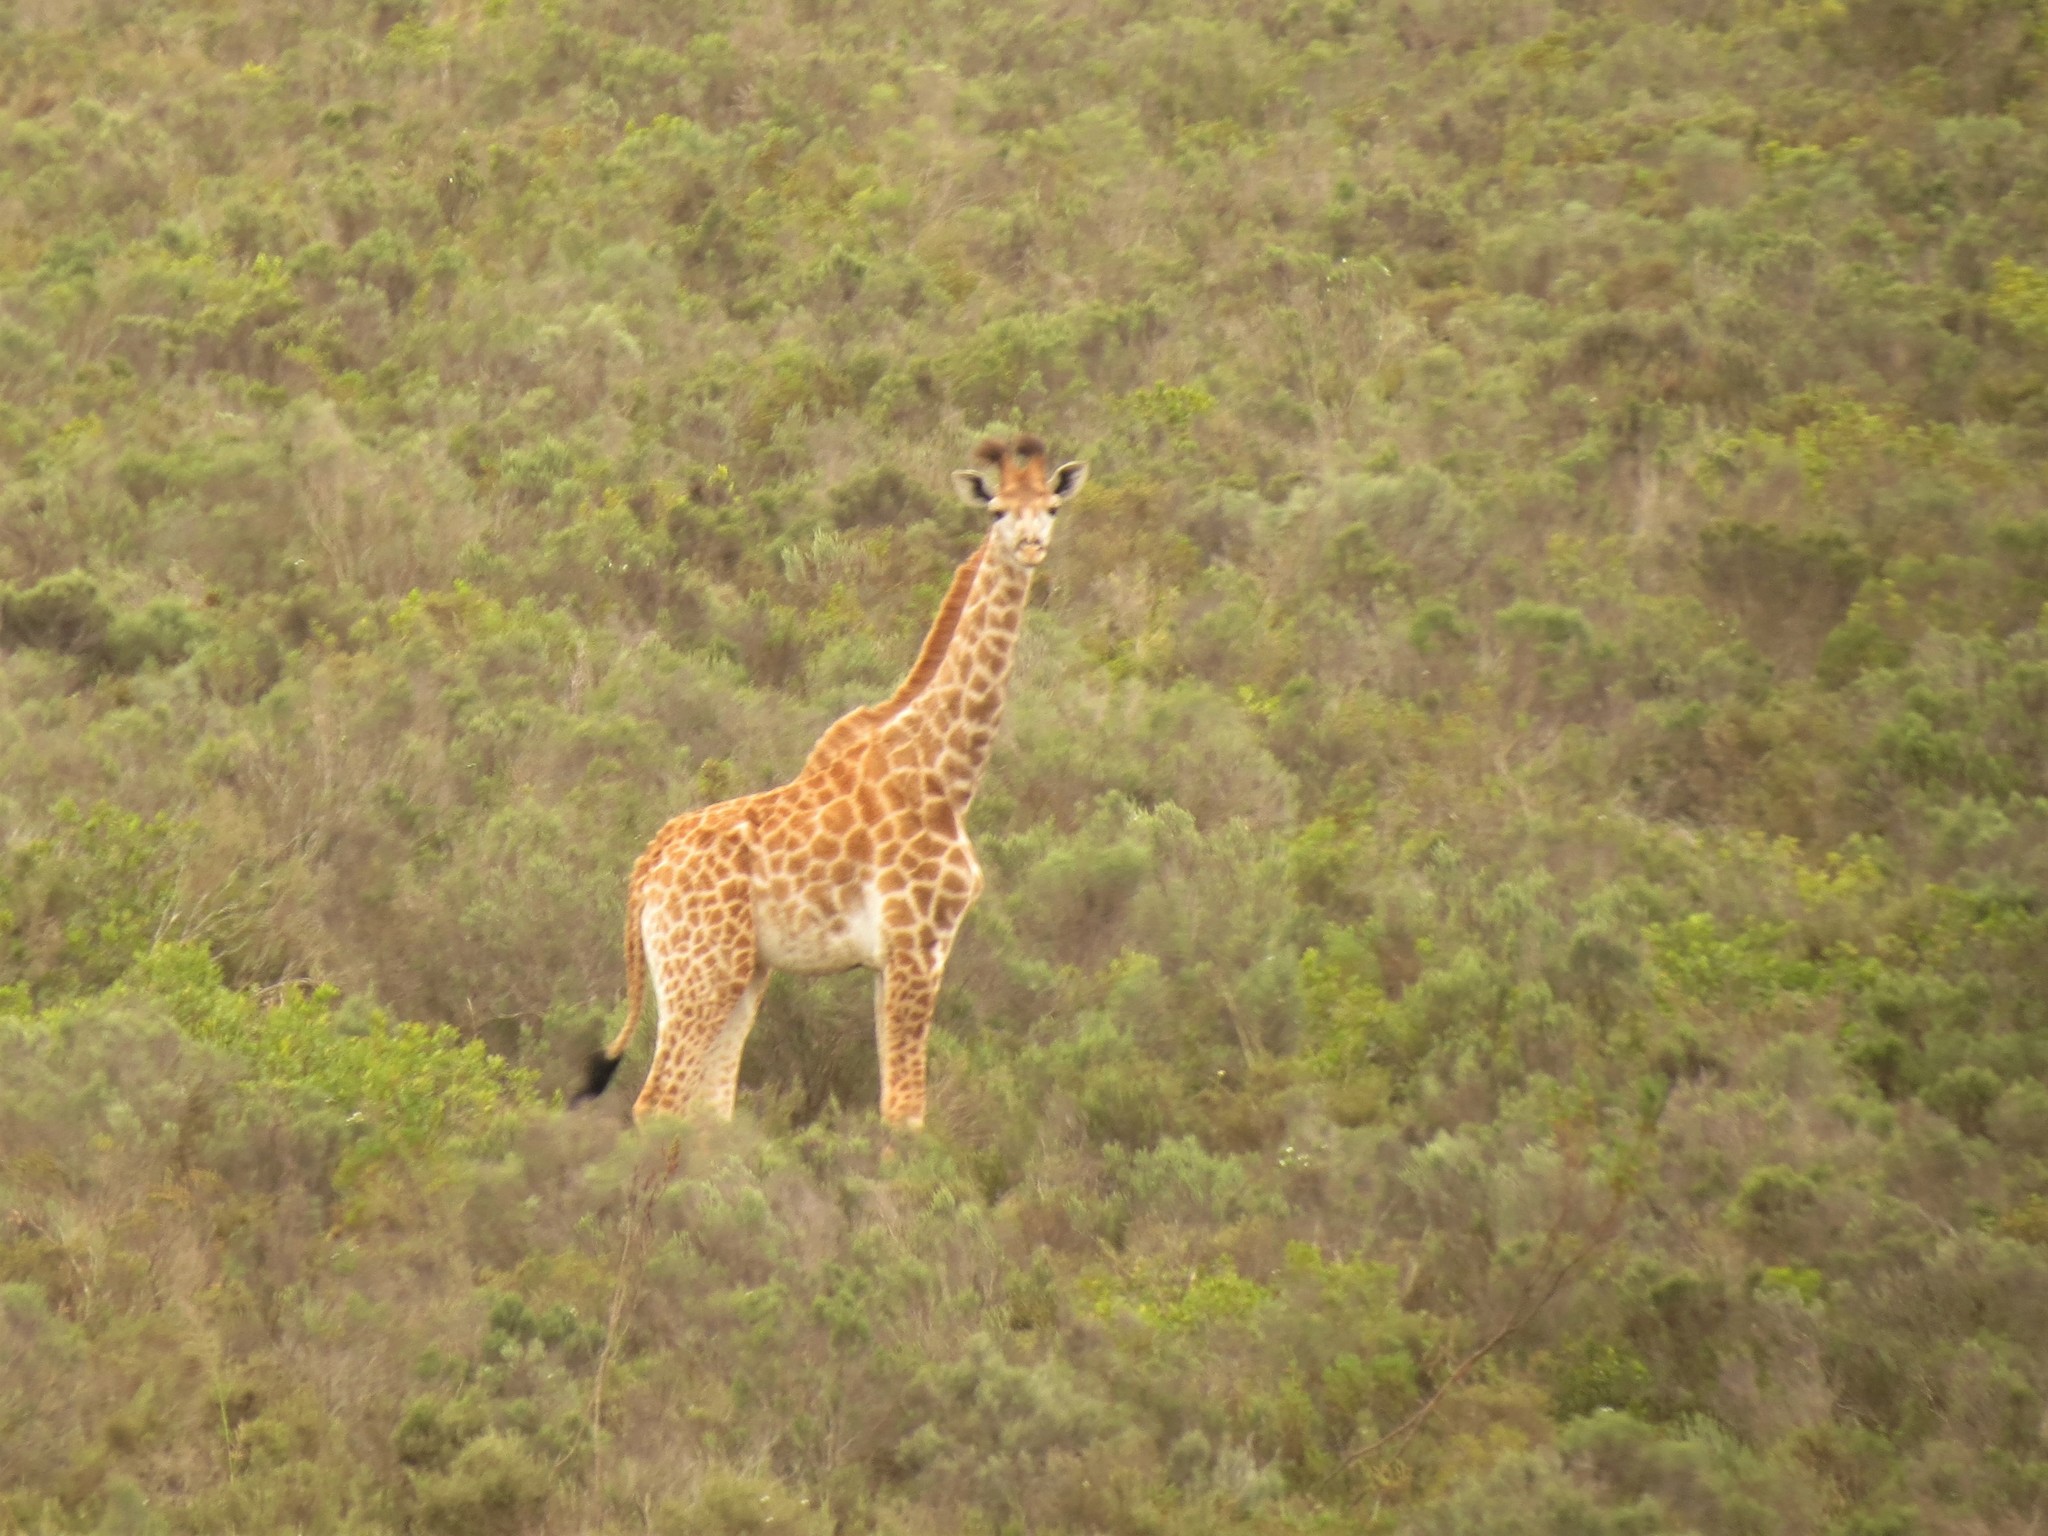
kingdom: Animalia
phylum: Chordata
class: Mammalia
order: Artiodactyla
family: Giraffidae
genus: Giraffa
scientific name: Giraffa giraffa
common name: Southern giraffe
